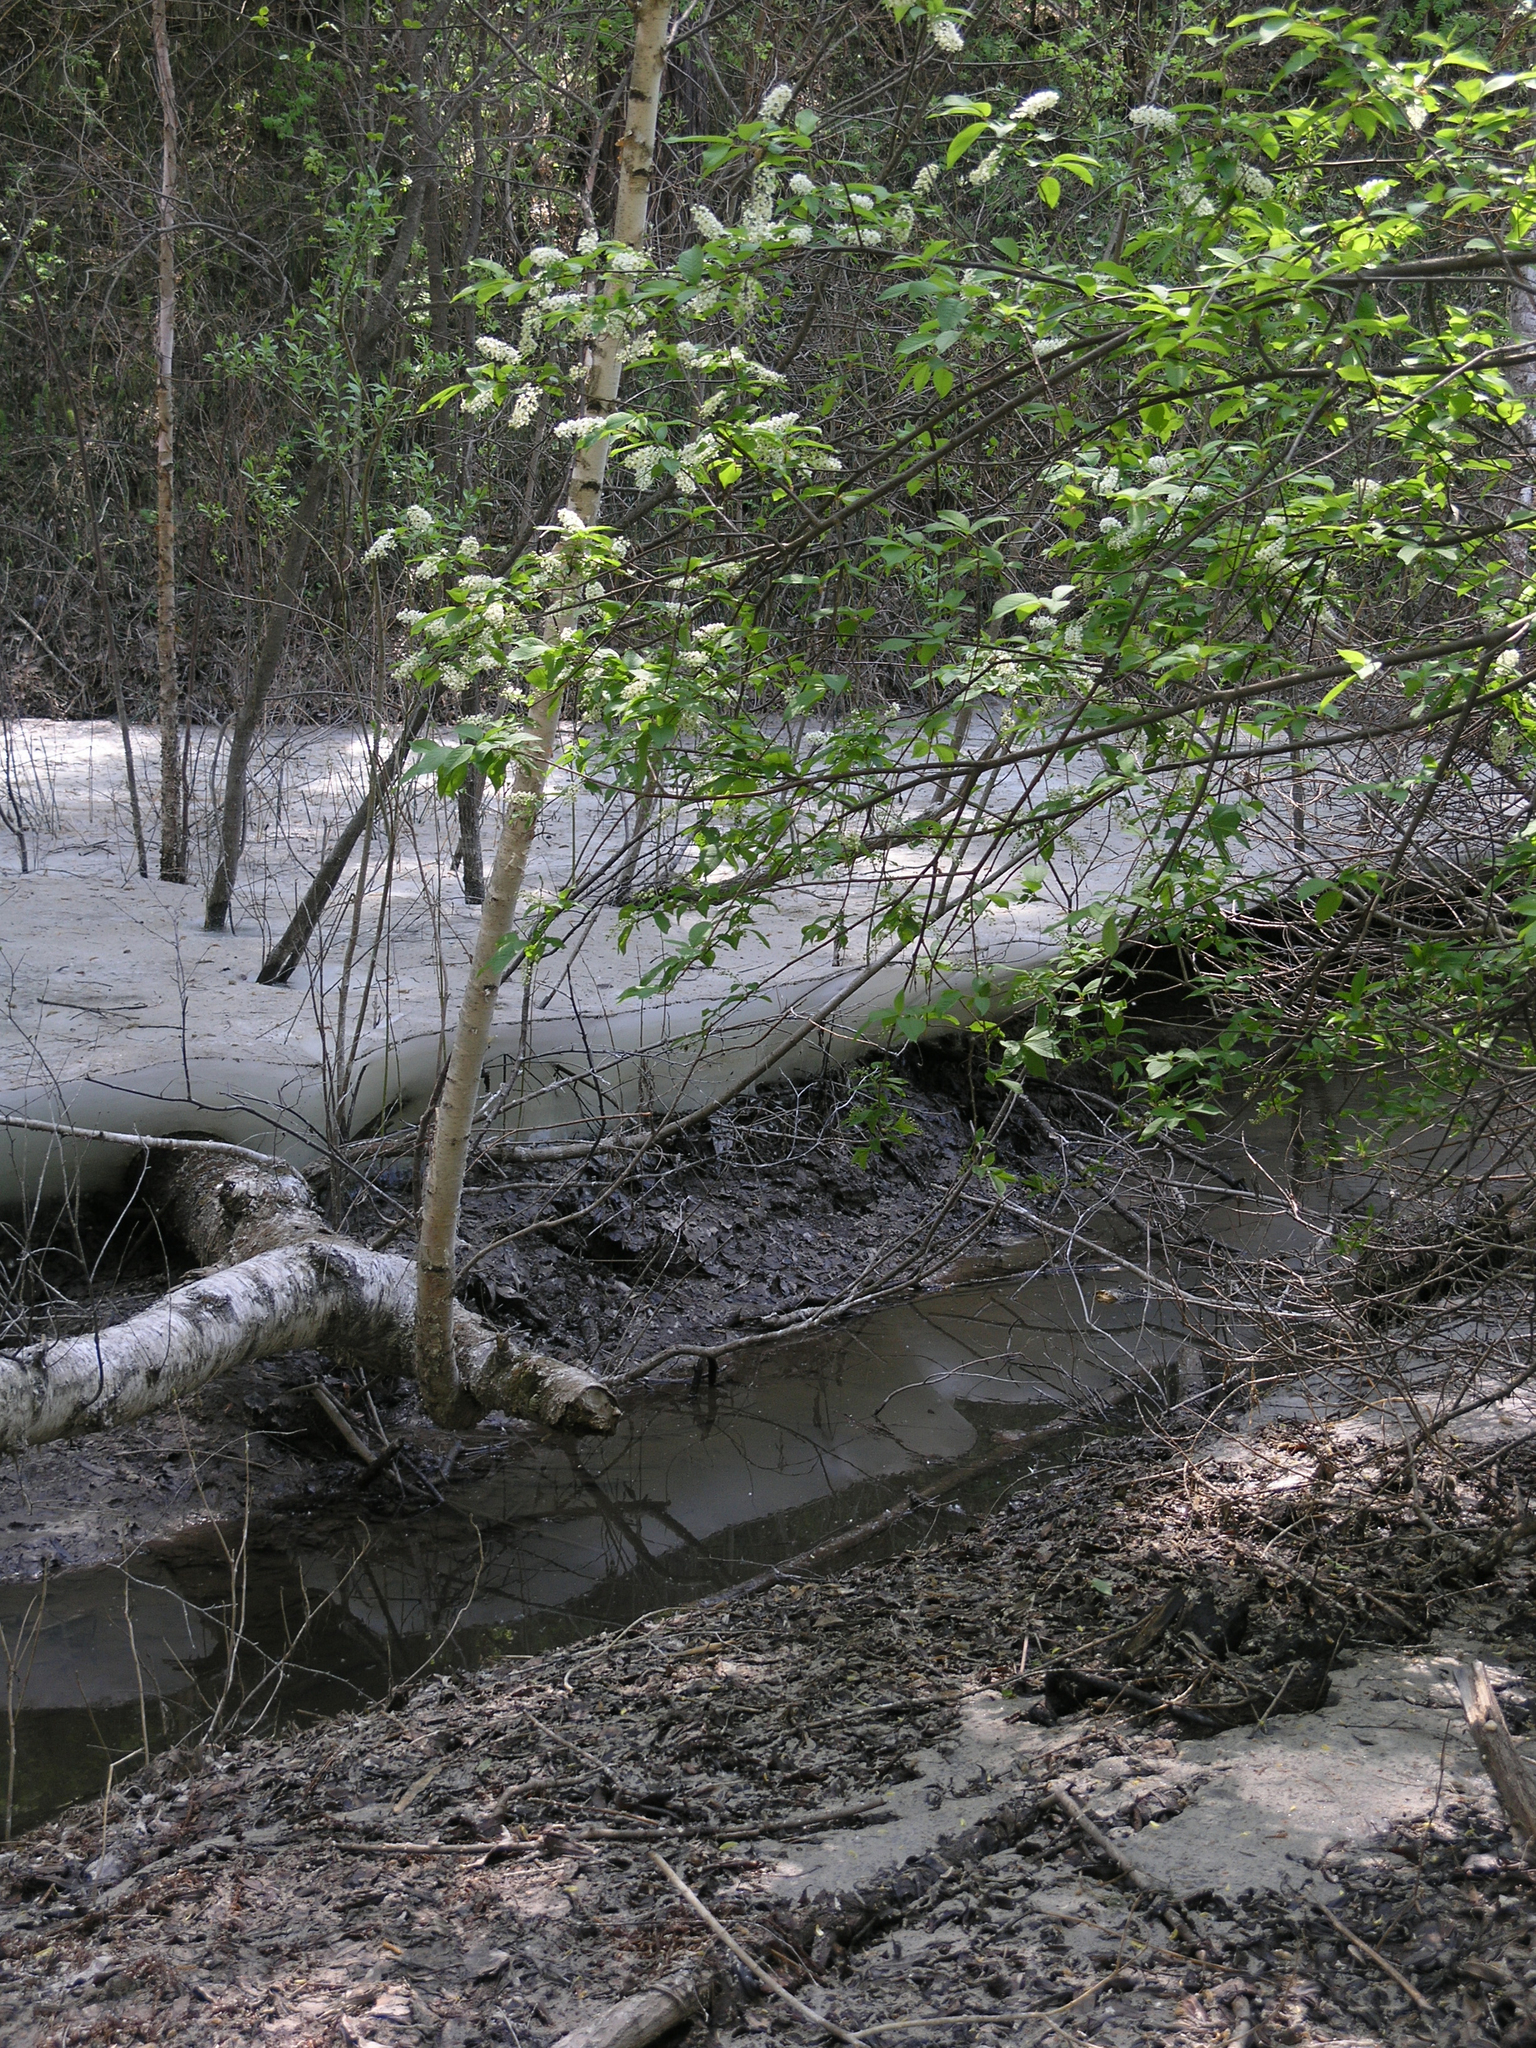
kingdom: Plantae
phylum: Tracheophyta
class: Magnoliopsida
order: Rosales
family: Rosaceae
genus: Prunus
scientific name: Prunus padus
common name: Bird cherry
